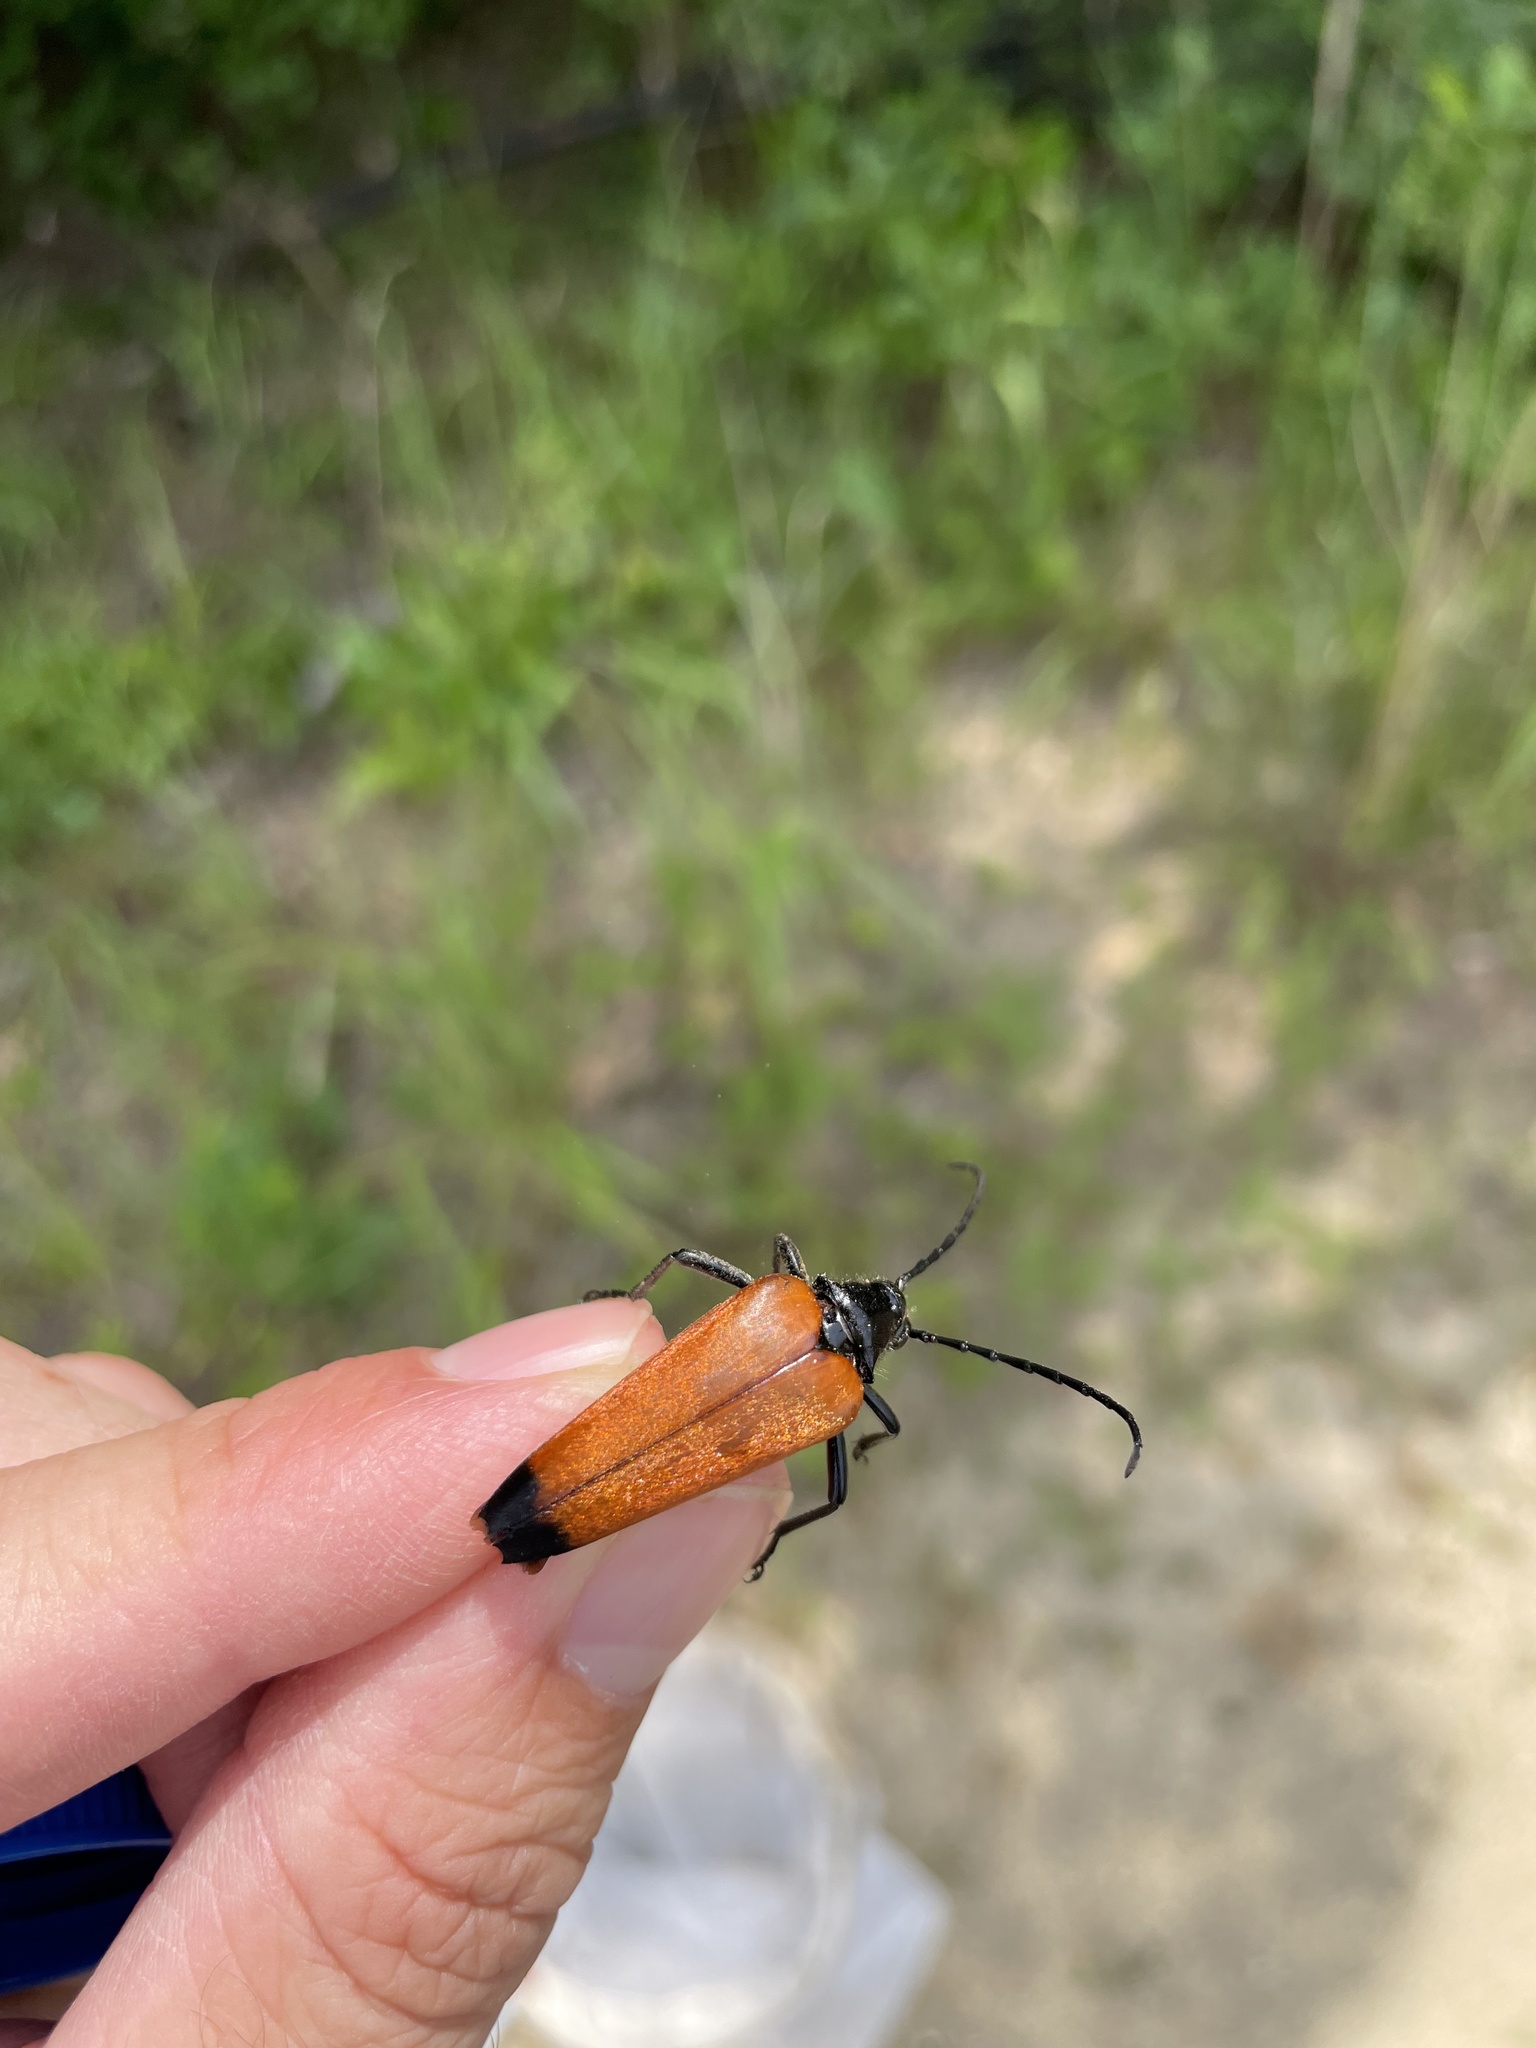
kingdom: Animalia
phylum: Arthropoda
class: Insecta
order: Coleoptera
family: Cerambycidae
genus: Stenelytrana
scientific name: Stenelytrana emarginata
